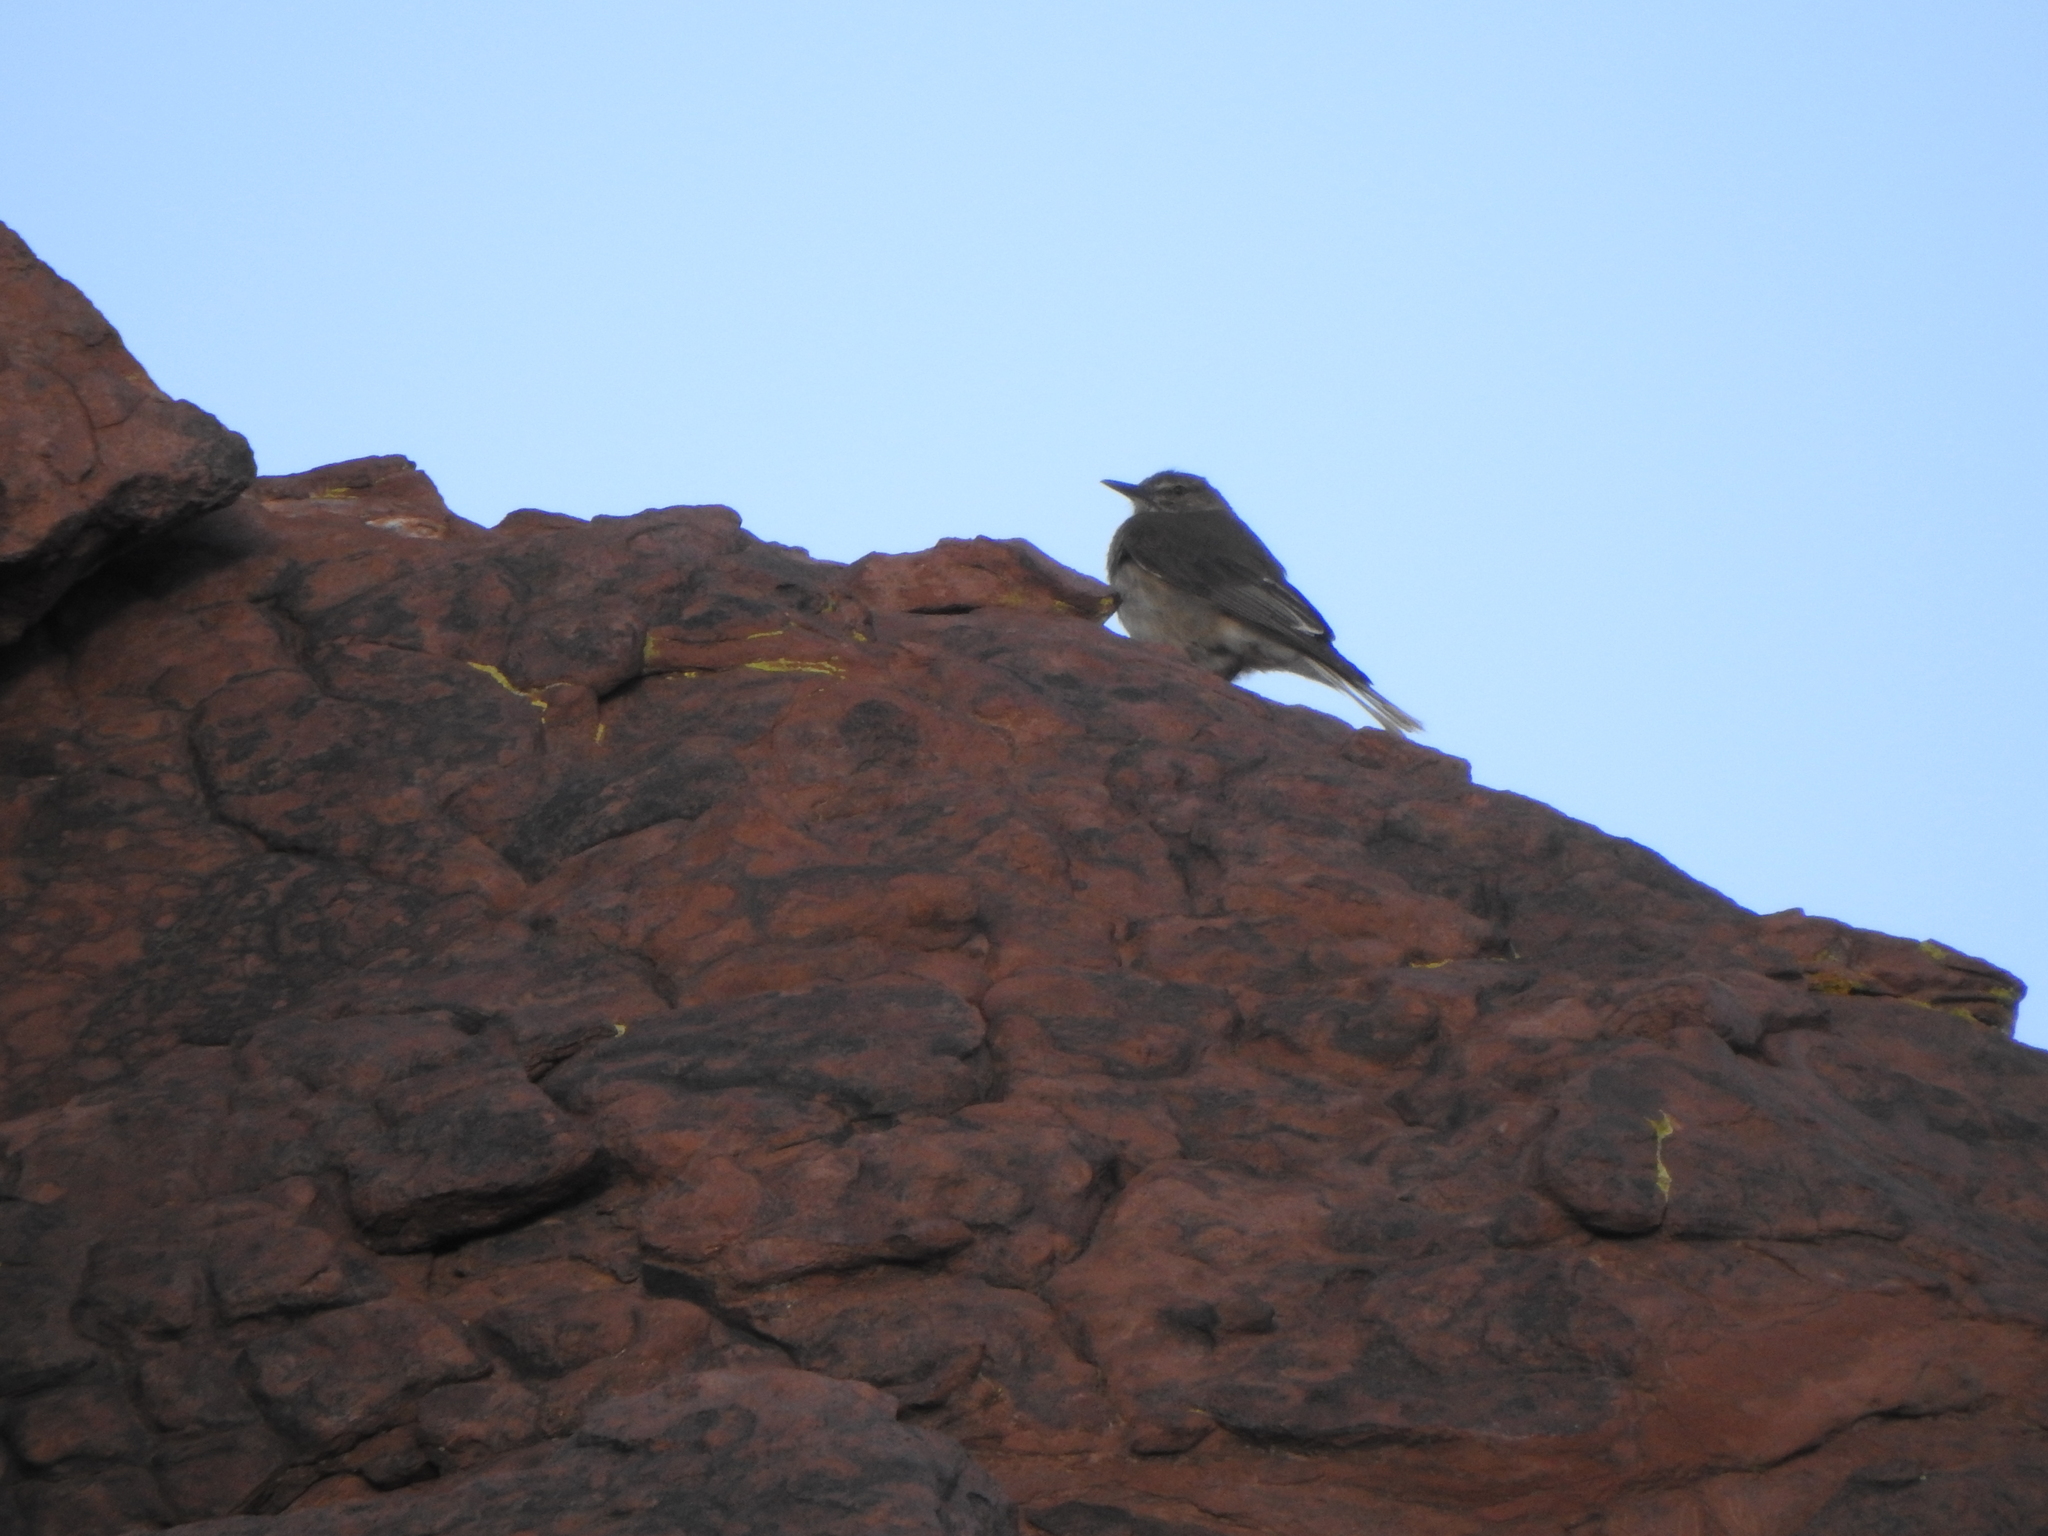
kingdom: Animalia
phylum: Chordata
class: Aves
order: Passeriformes
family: Tyrannidae
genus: Agriornis
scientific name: Agriornis montanus
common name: Black-billed shrike-tyrant
